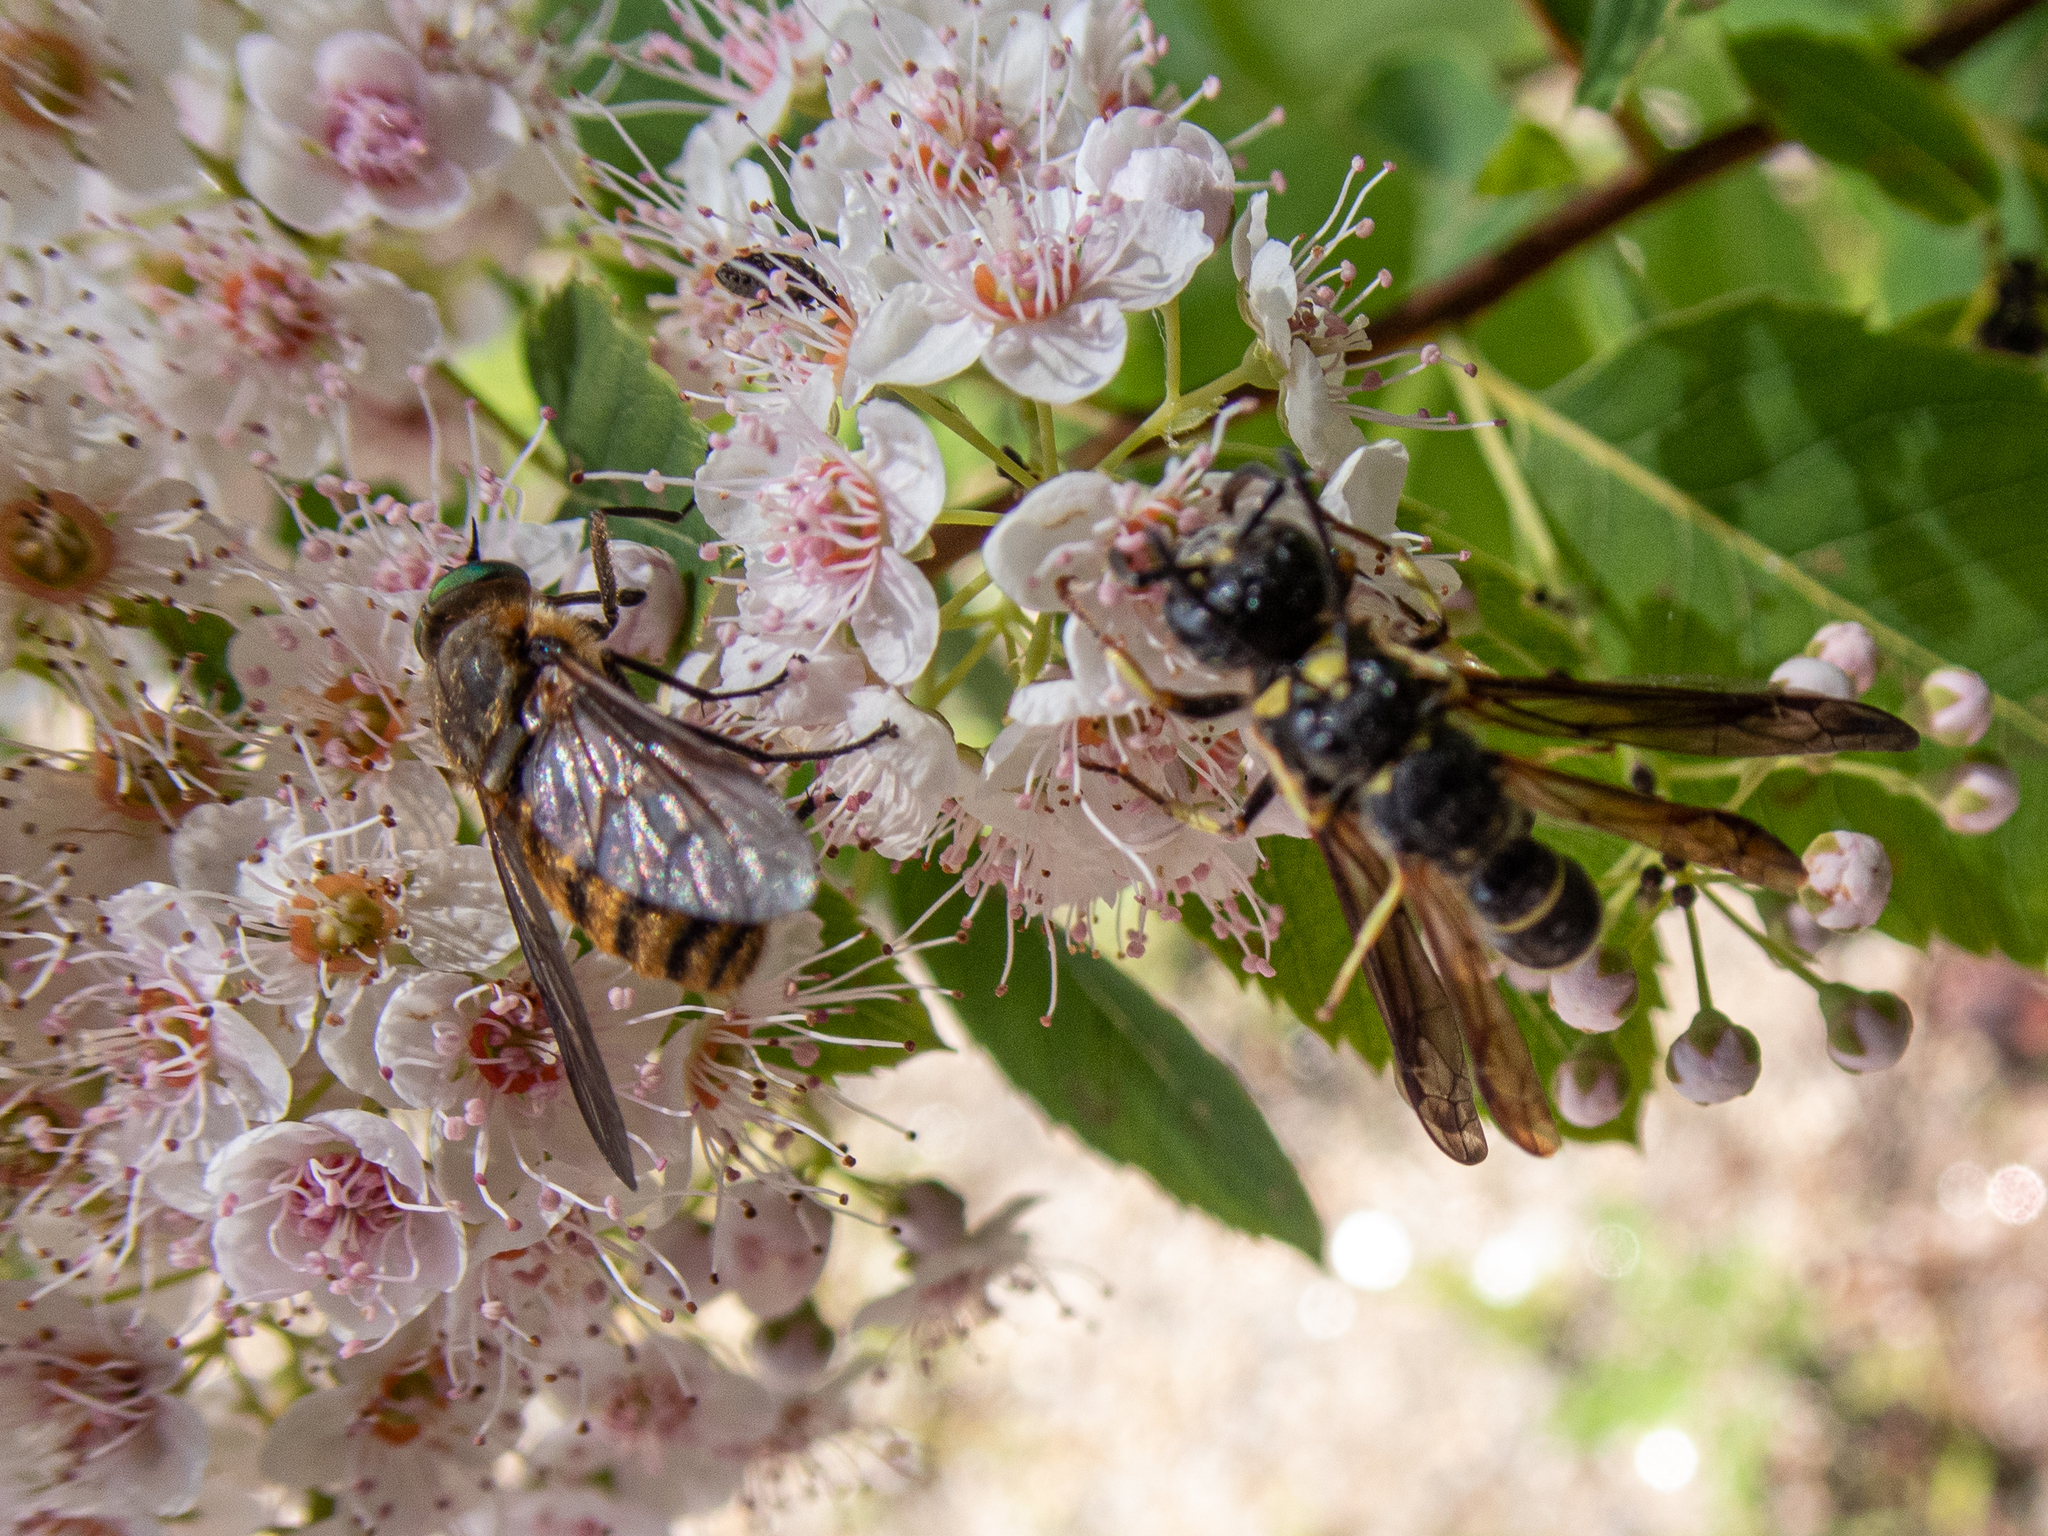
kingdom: Animalia
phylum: Arthropoda
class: Insecta
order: Diptera
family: Tabanidae
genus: Stonemyia
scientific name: Stonemyia tranquilla
